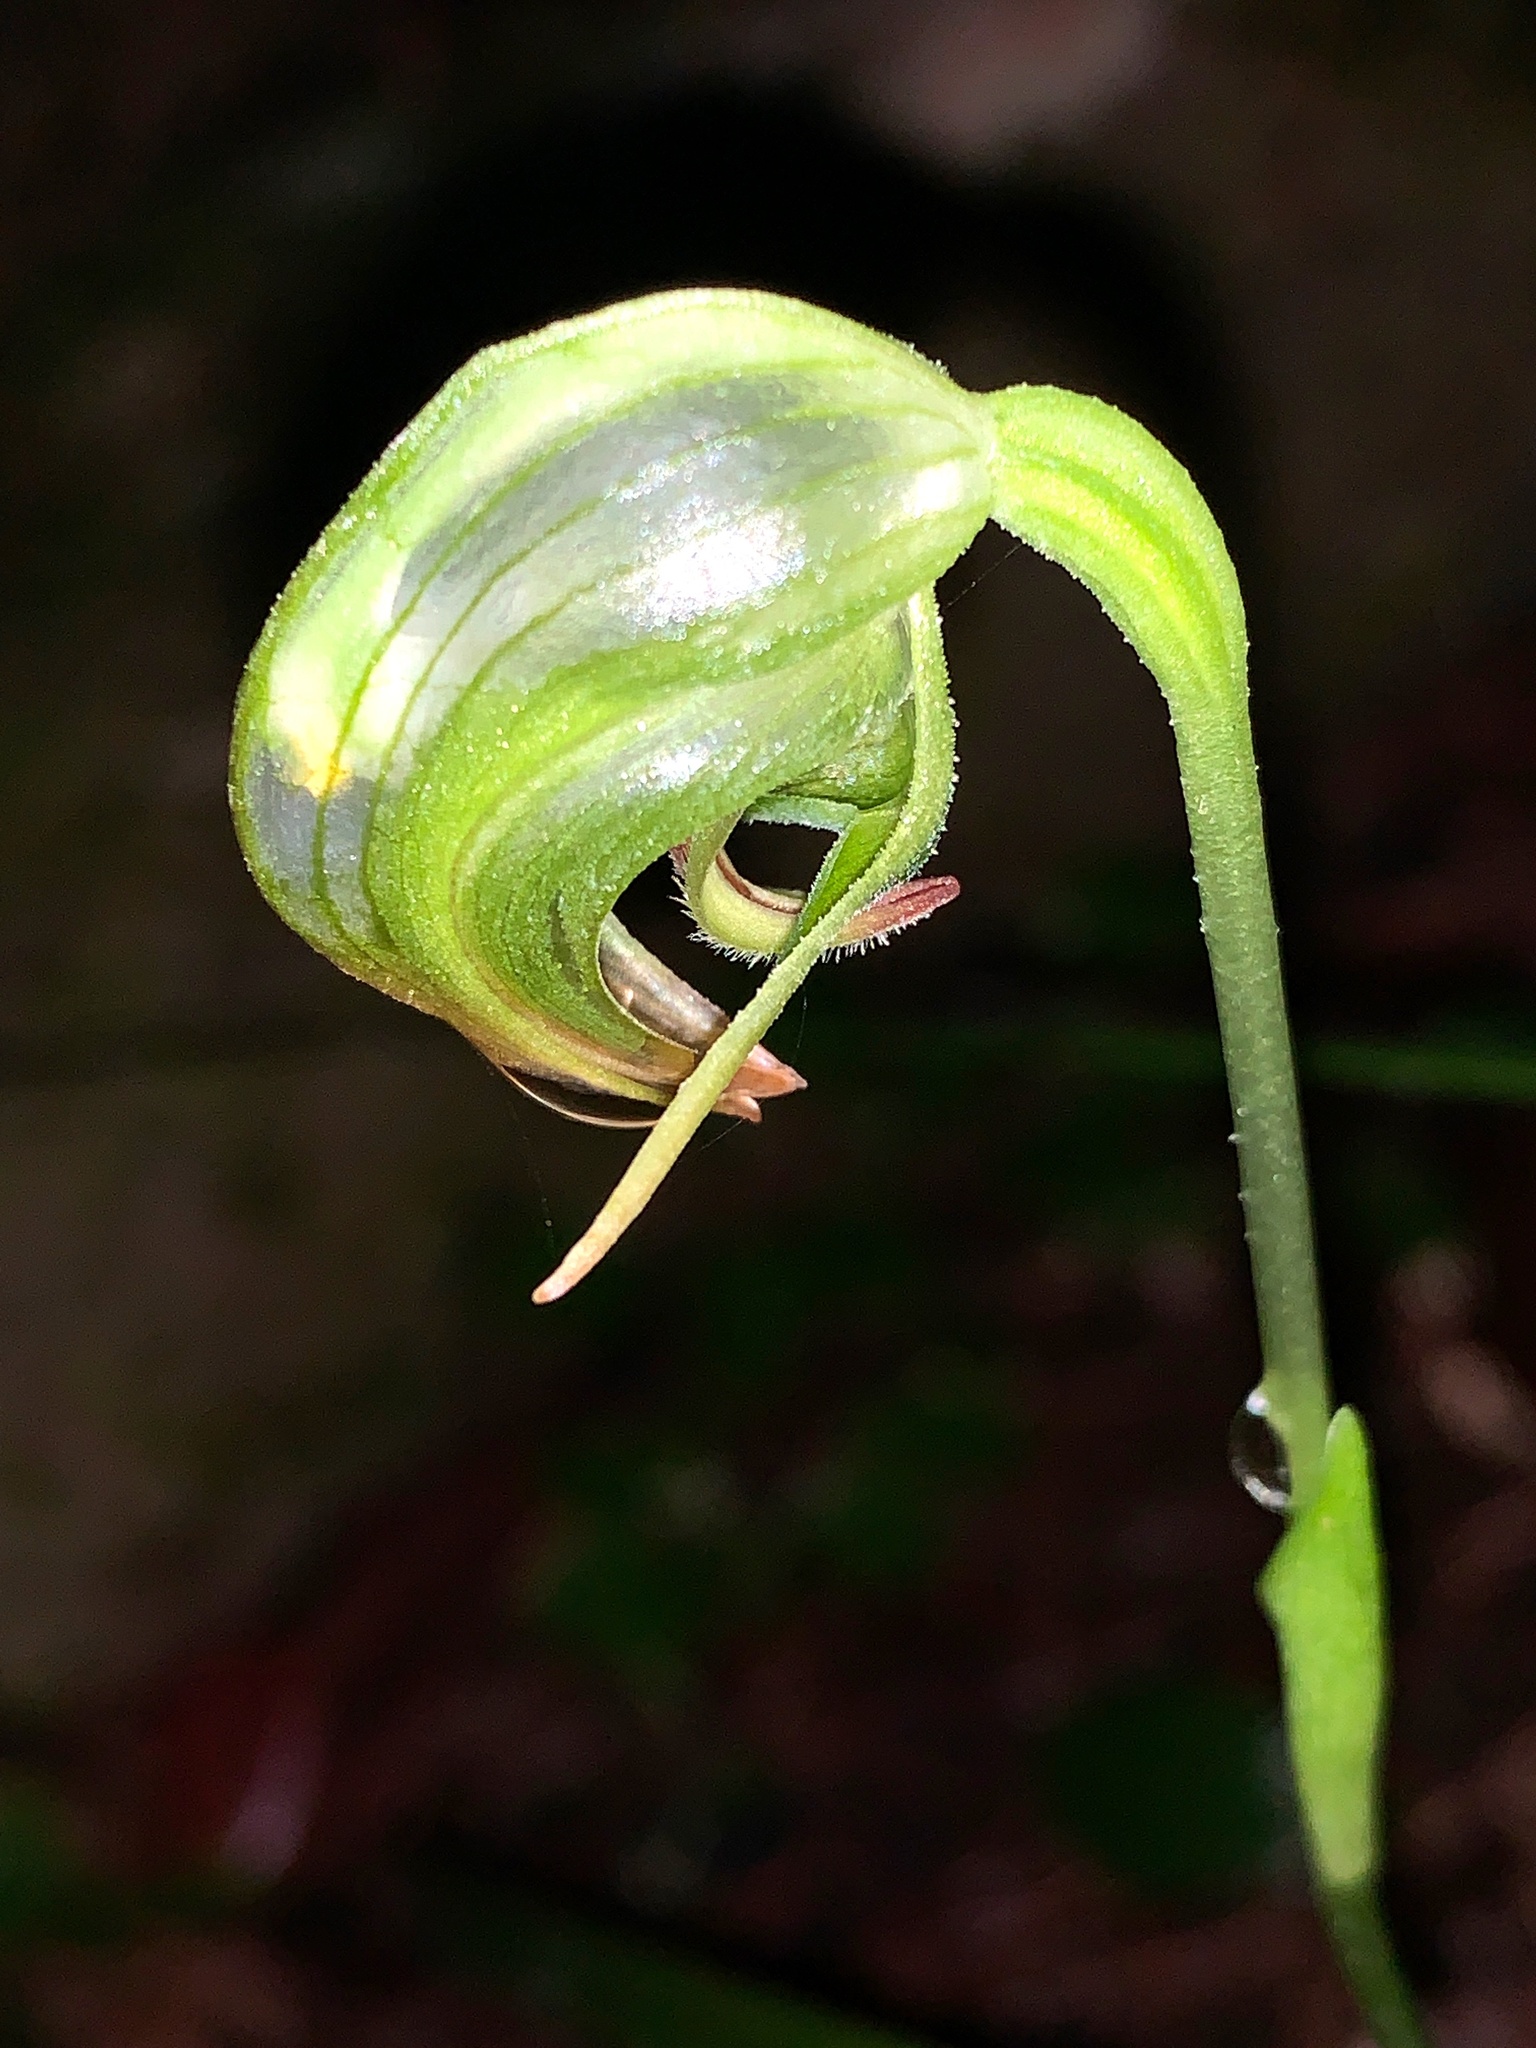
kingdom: Plantae
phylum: Tracheophyta
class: Liliopsida
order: Asparagales
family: Orchidaceae
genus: Pterostylis
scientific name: Pterostylis nutans
